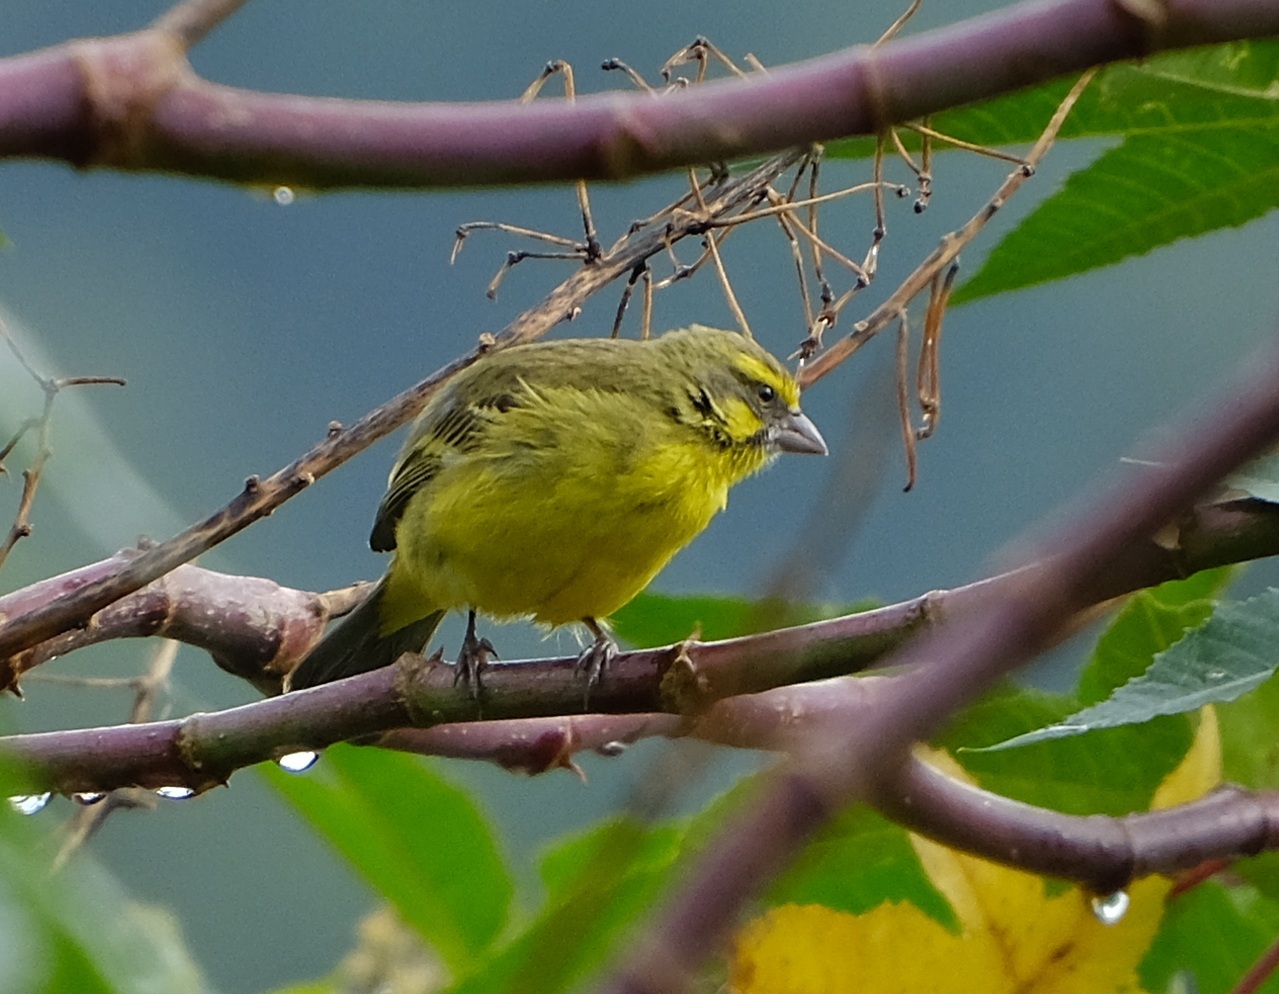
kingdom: Animalia
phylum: Chordata
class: Aves
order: Passeriformes
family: Fringillidae
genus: Crithagra
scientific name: Crithagra sulphurata
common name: Brimstone canary
